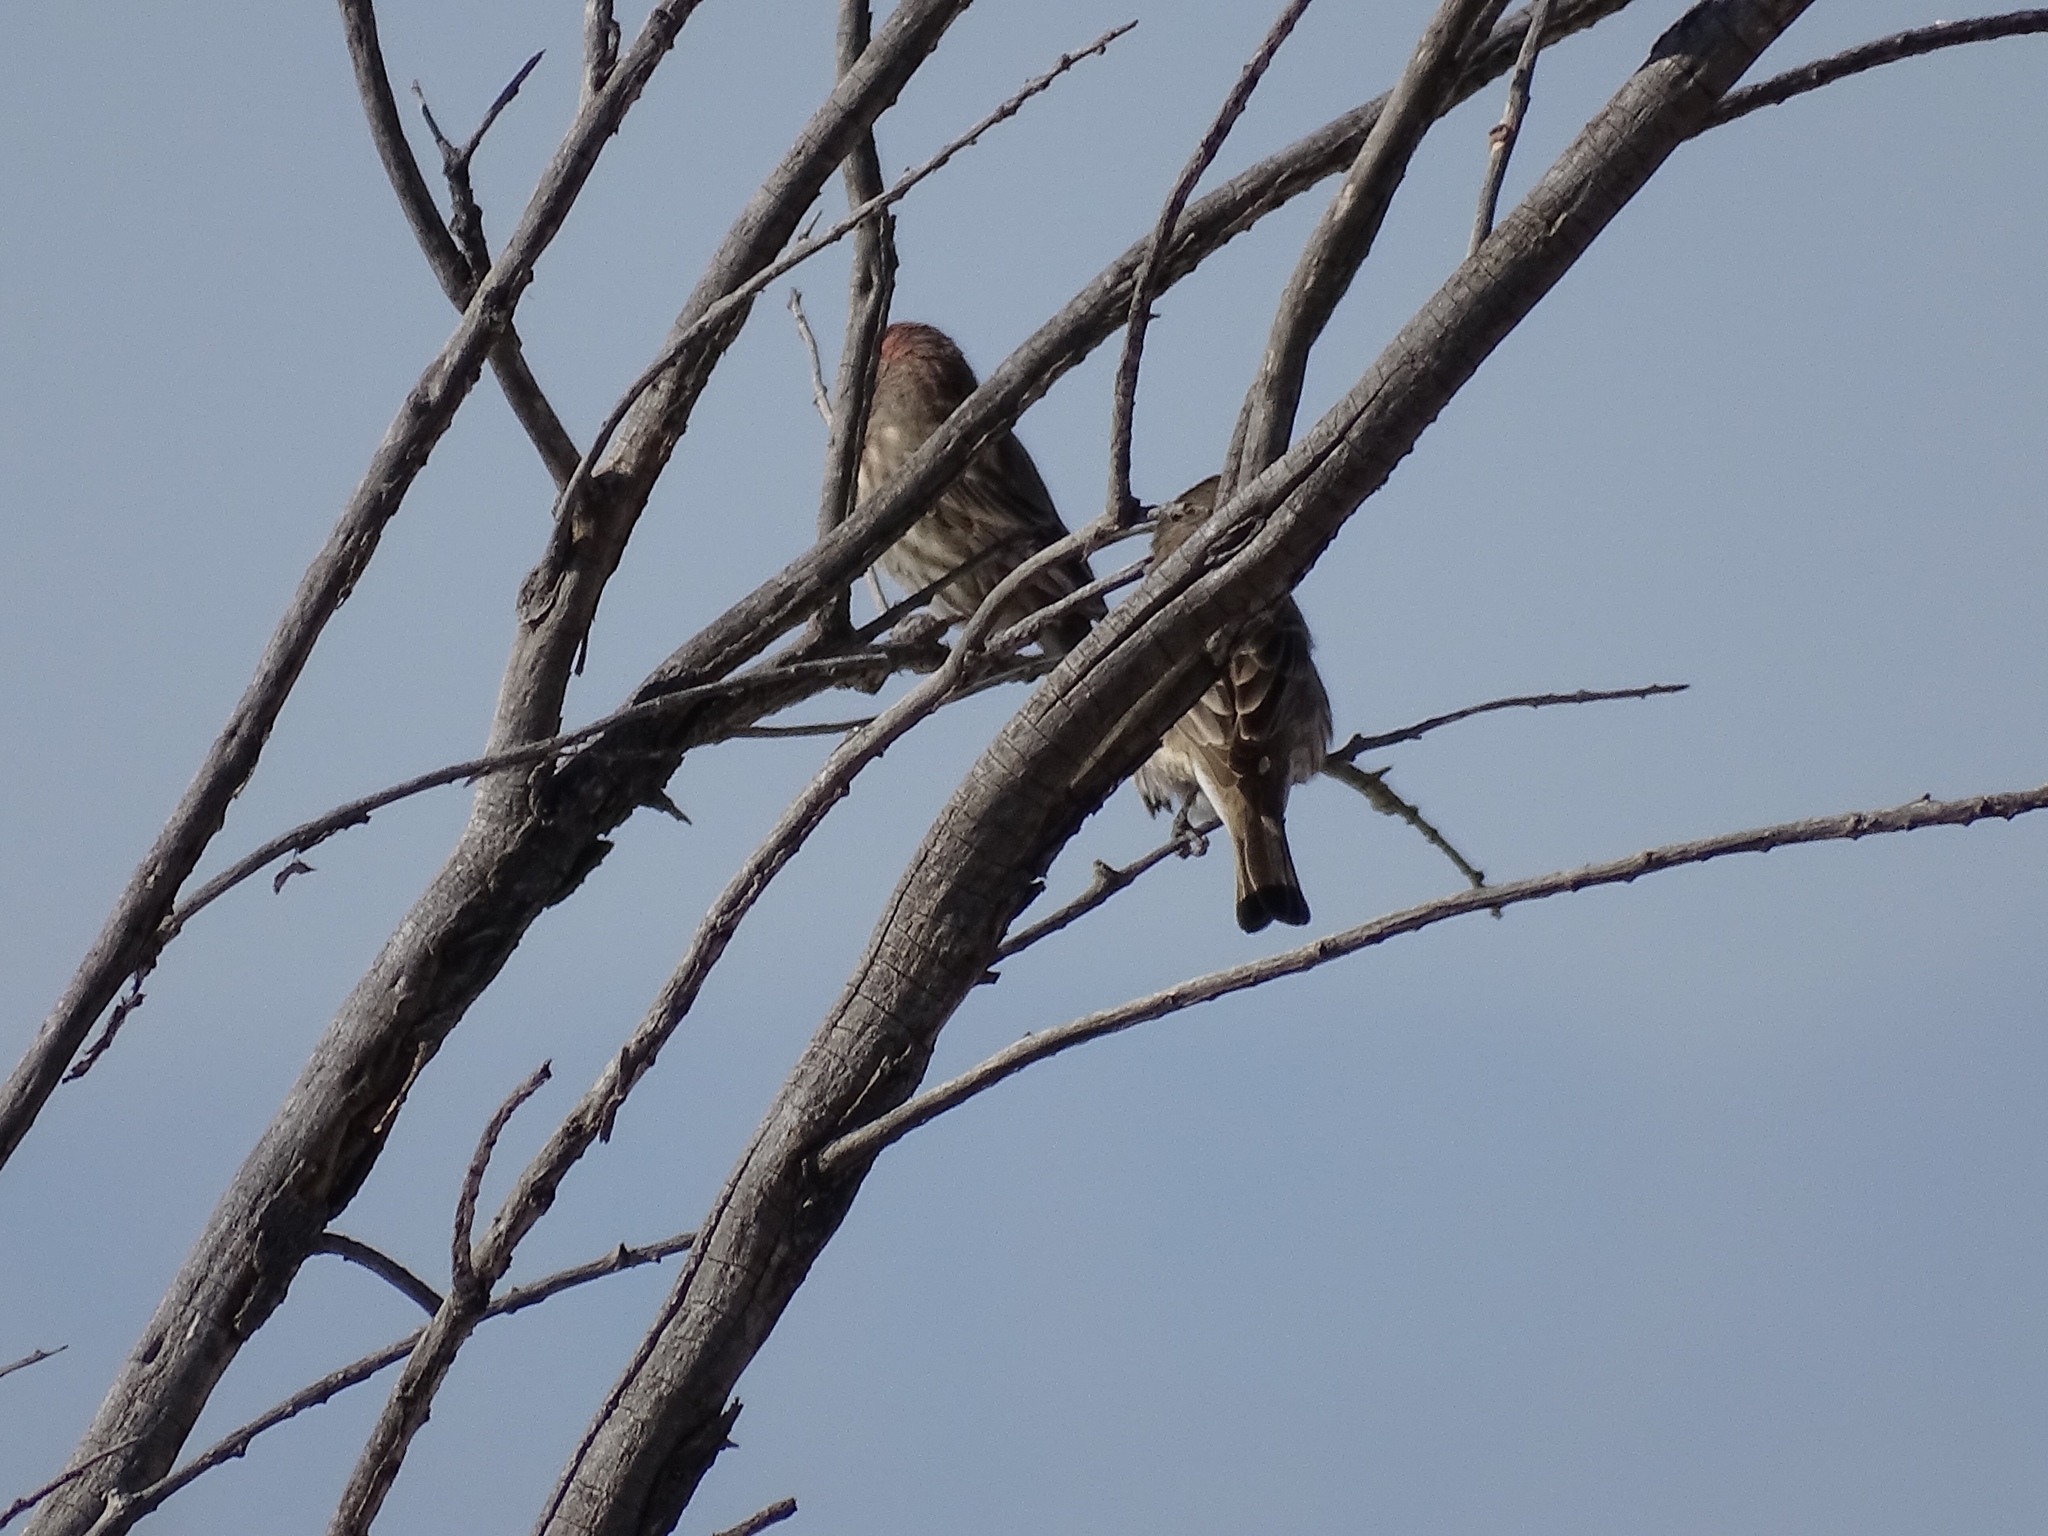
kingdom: Animalia
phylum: Chordata
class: Aves
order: Passeriformes
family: Fringillidae
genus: Haemorhous
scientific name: Haemorhous mexicanus
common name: House finch
